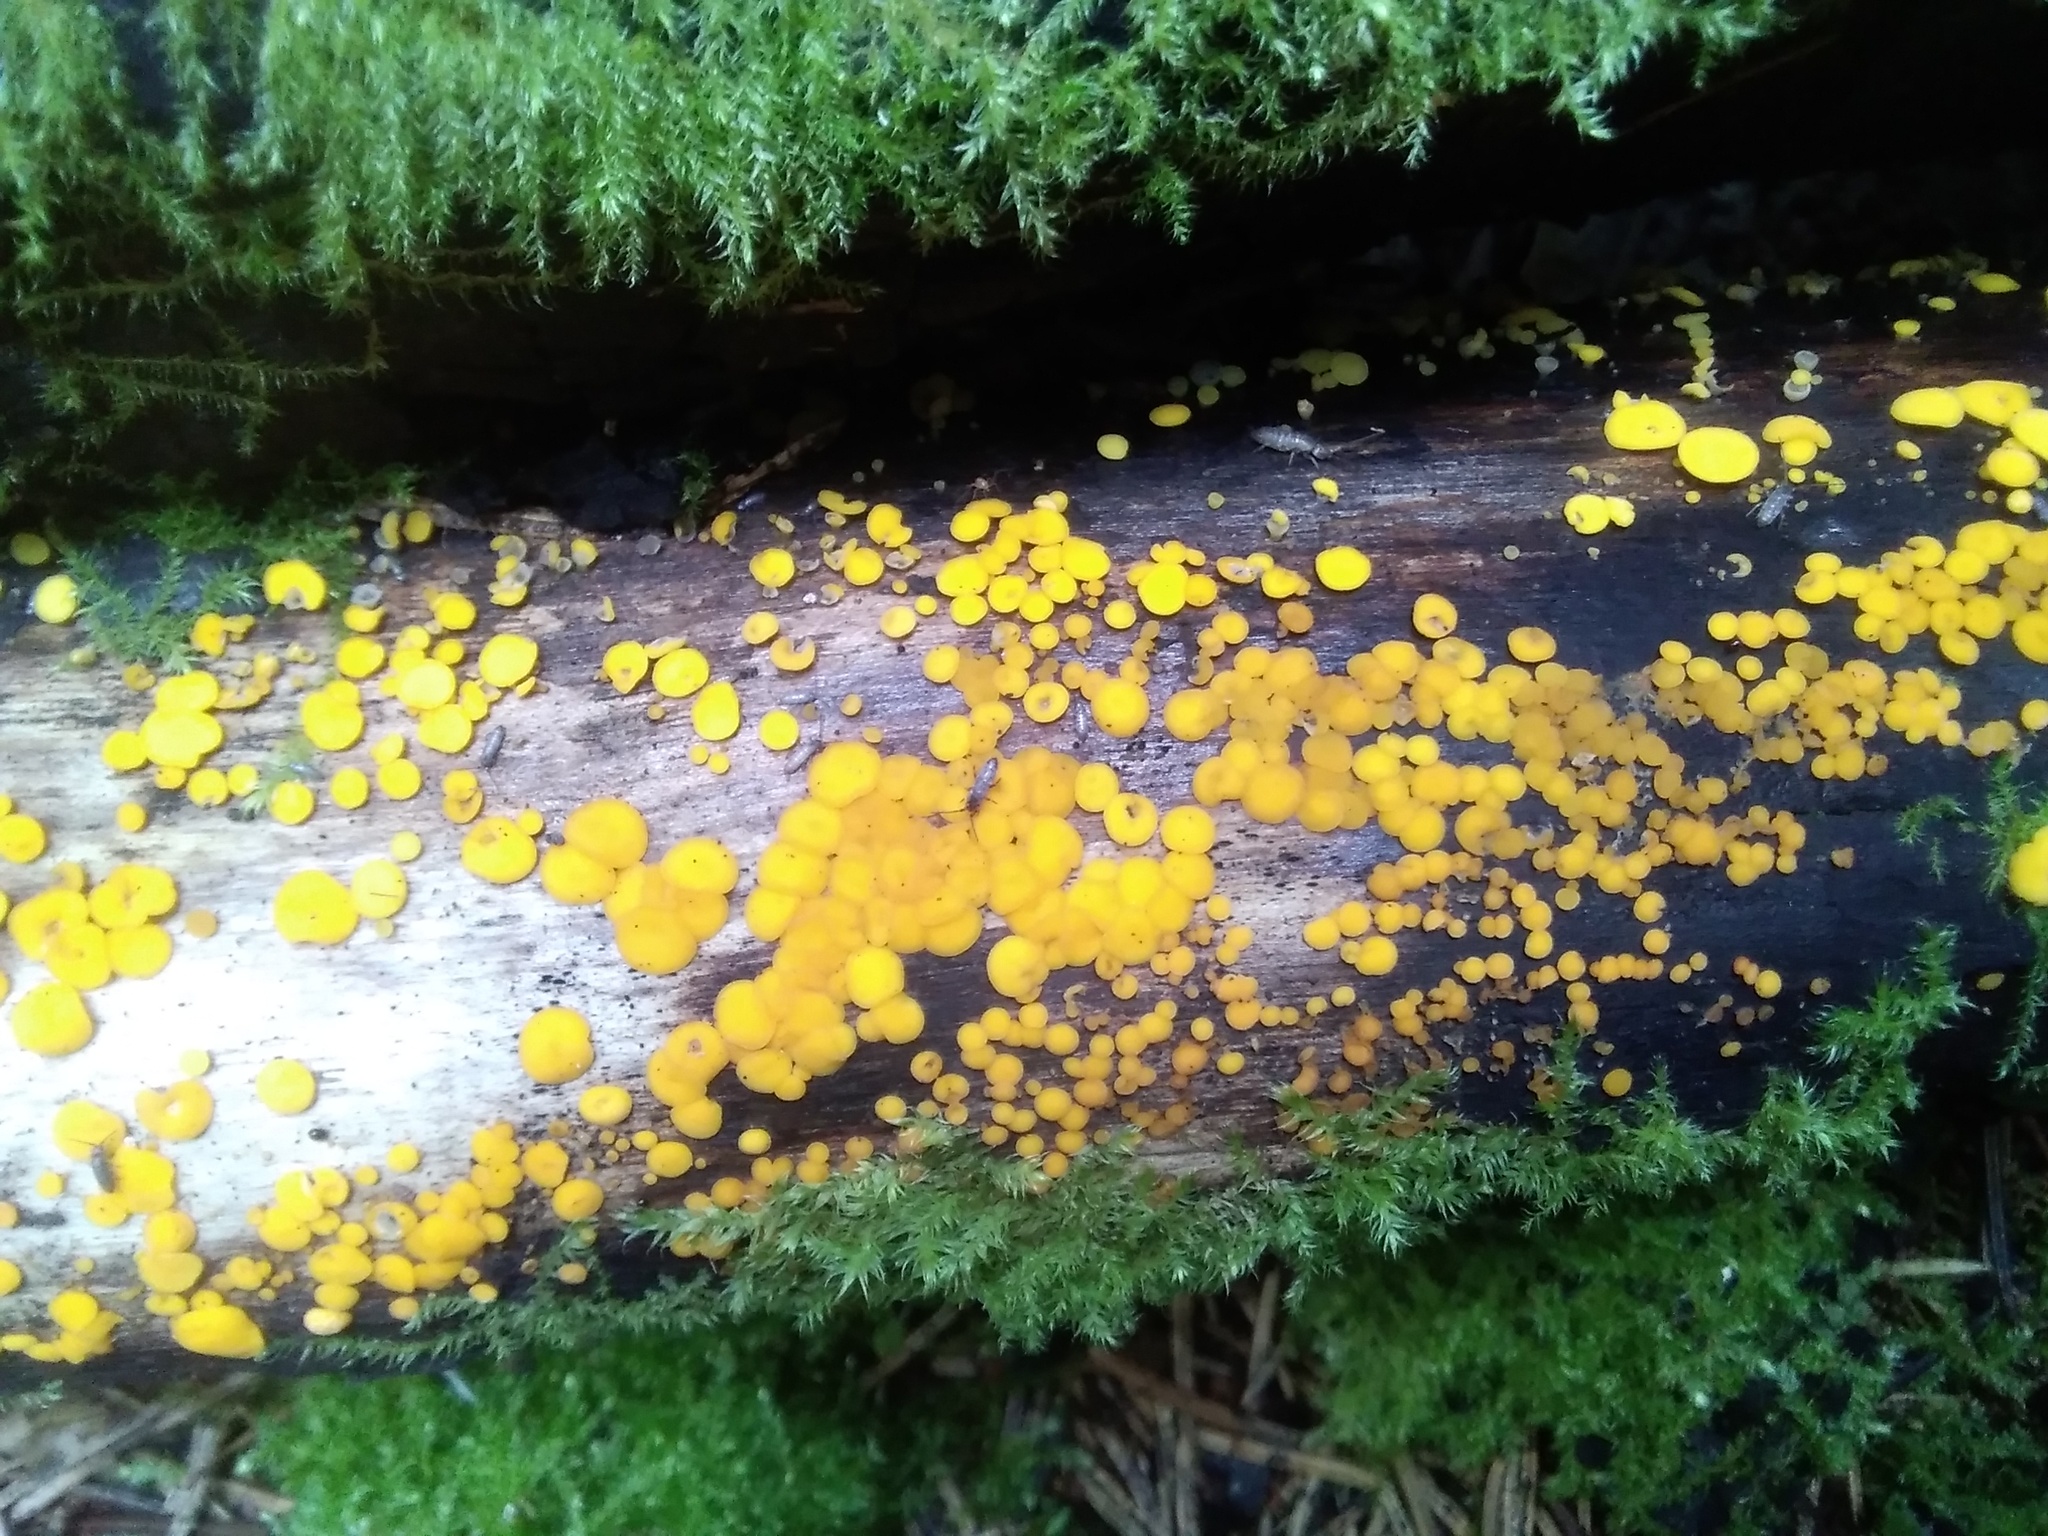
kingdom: Fungi
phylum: Ascomycota
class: Leotiomycetes
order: Helotiales
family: Pezizellaceae
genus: Calycina
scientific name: Calycina citrina
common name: Yellow fairy cups
